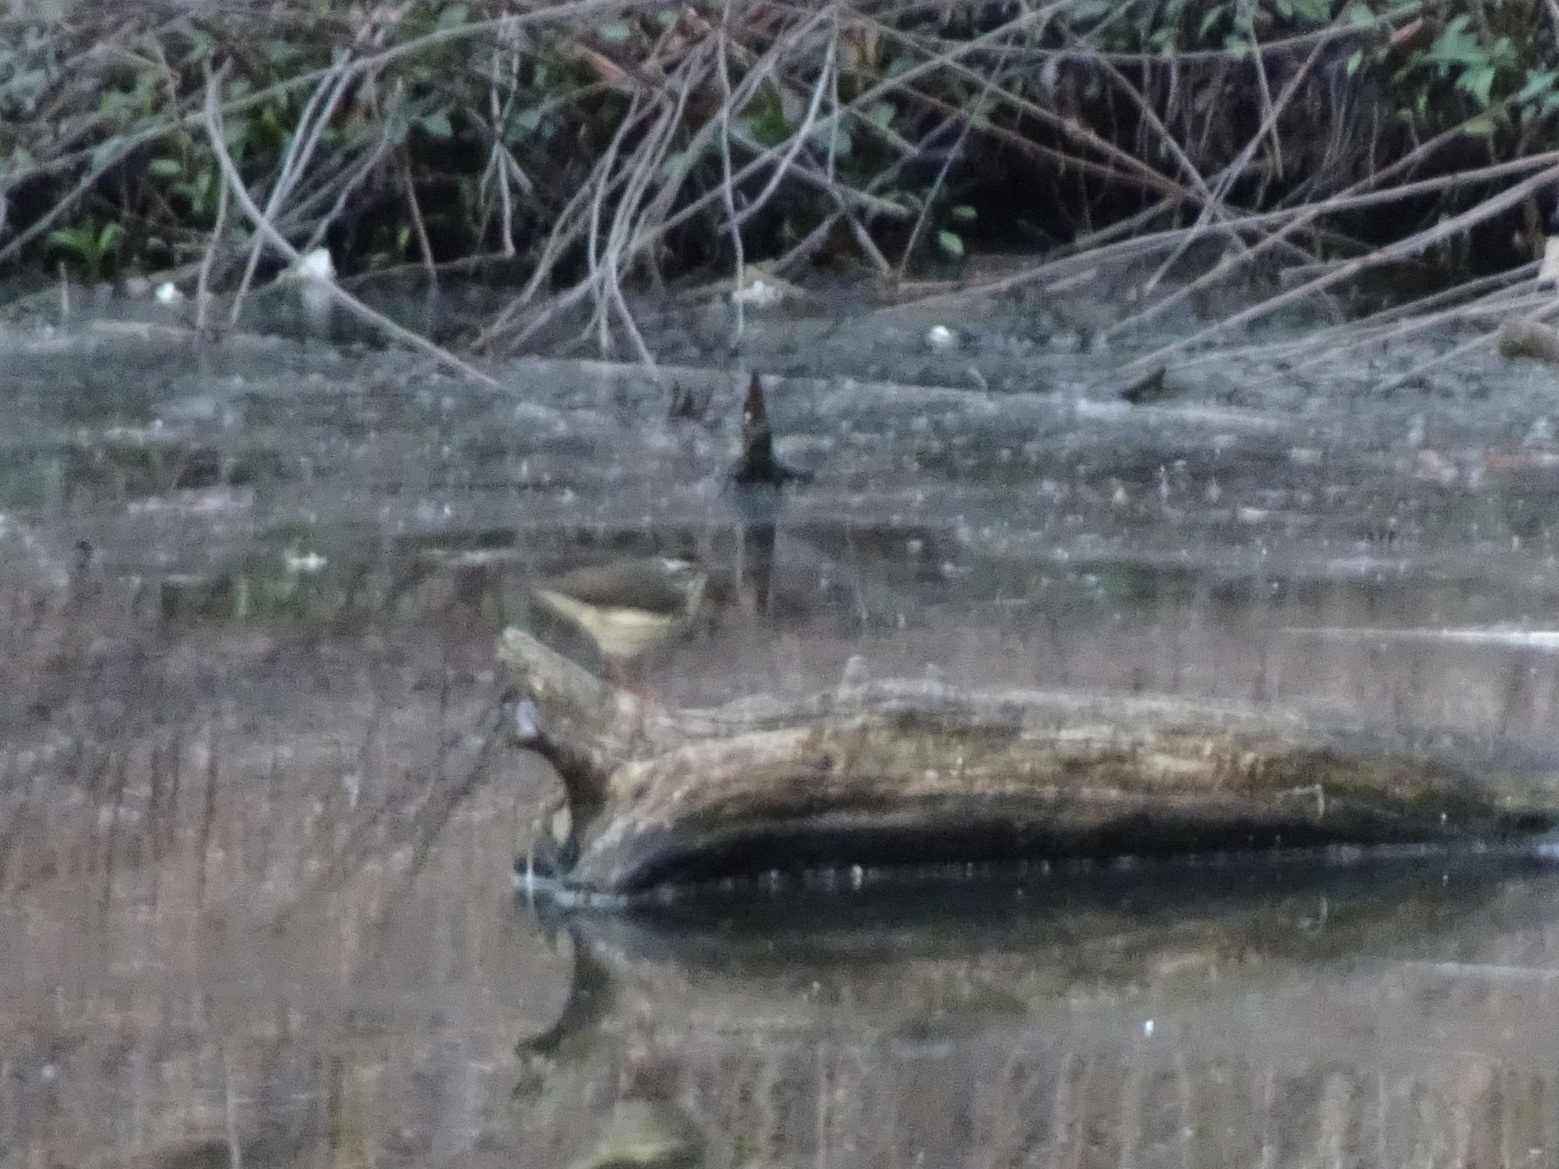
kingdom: Animalia
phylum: Chordata
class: Aves
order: Passeriformes
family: Parulidae
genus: Parkesia
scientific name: Parkesia motacilla
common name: Louisiana waterthrush
